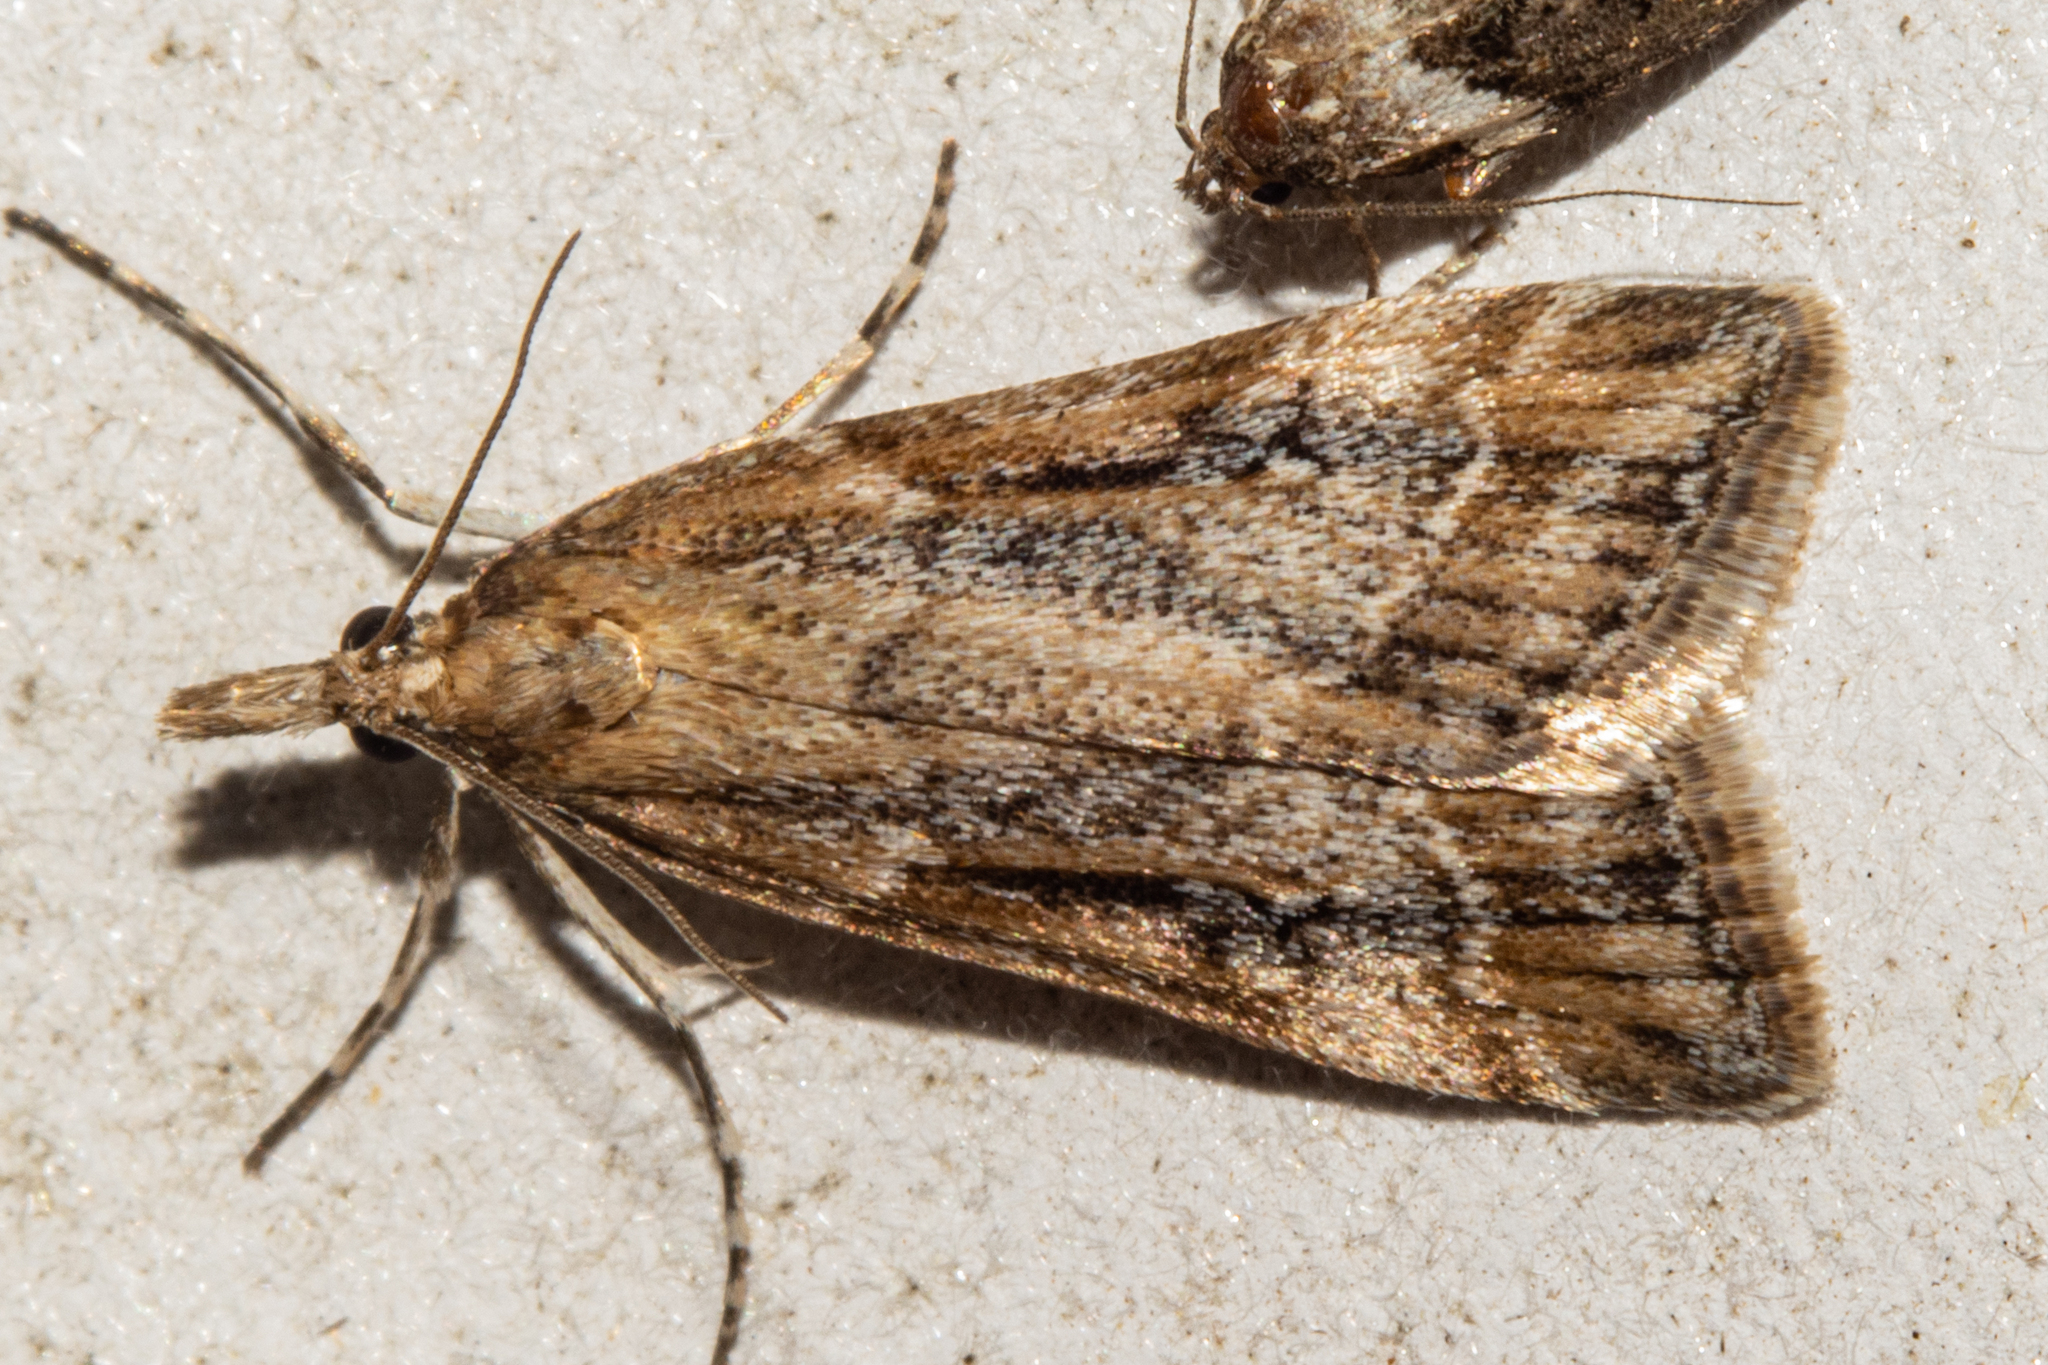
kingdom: Animalia
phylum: Arthropoda
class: Insecta
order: Lepidoptera
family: Crambidae
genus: Eudonia
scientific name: Eudonia chalara
